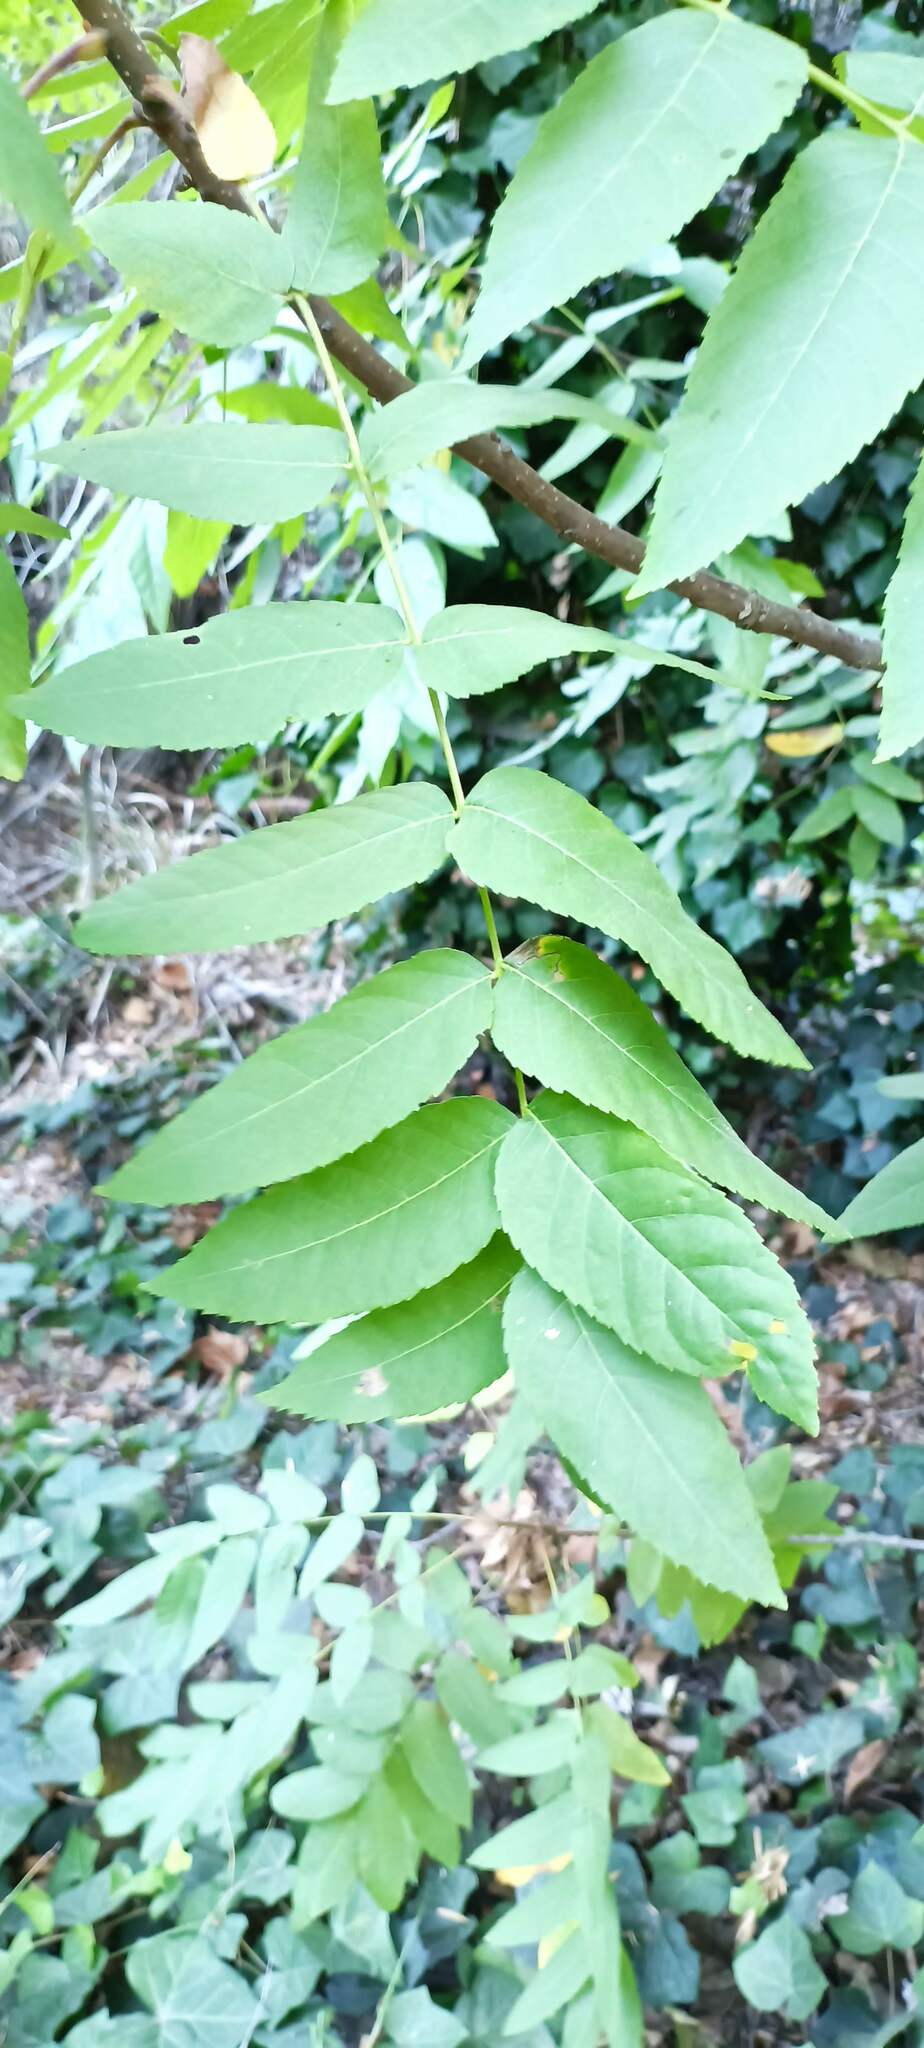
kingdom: Plantae
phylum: Tracheophyta
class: Magnoliopsida
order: Fagales
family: Juglandaceae
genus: Juglans
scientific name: Juglans californica
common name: Southern california black walnut
